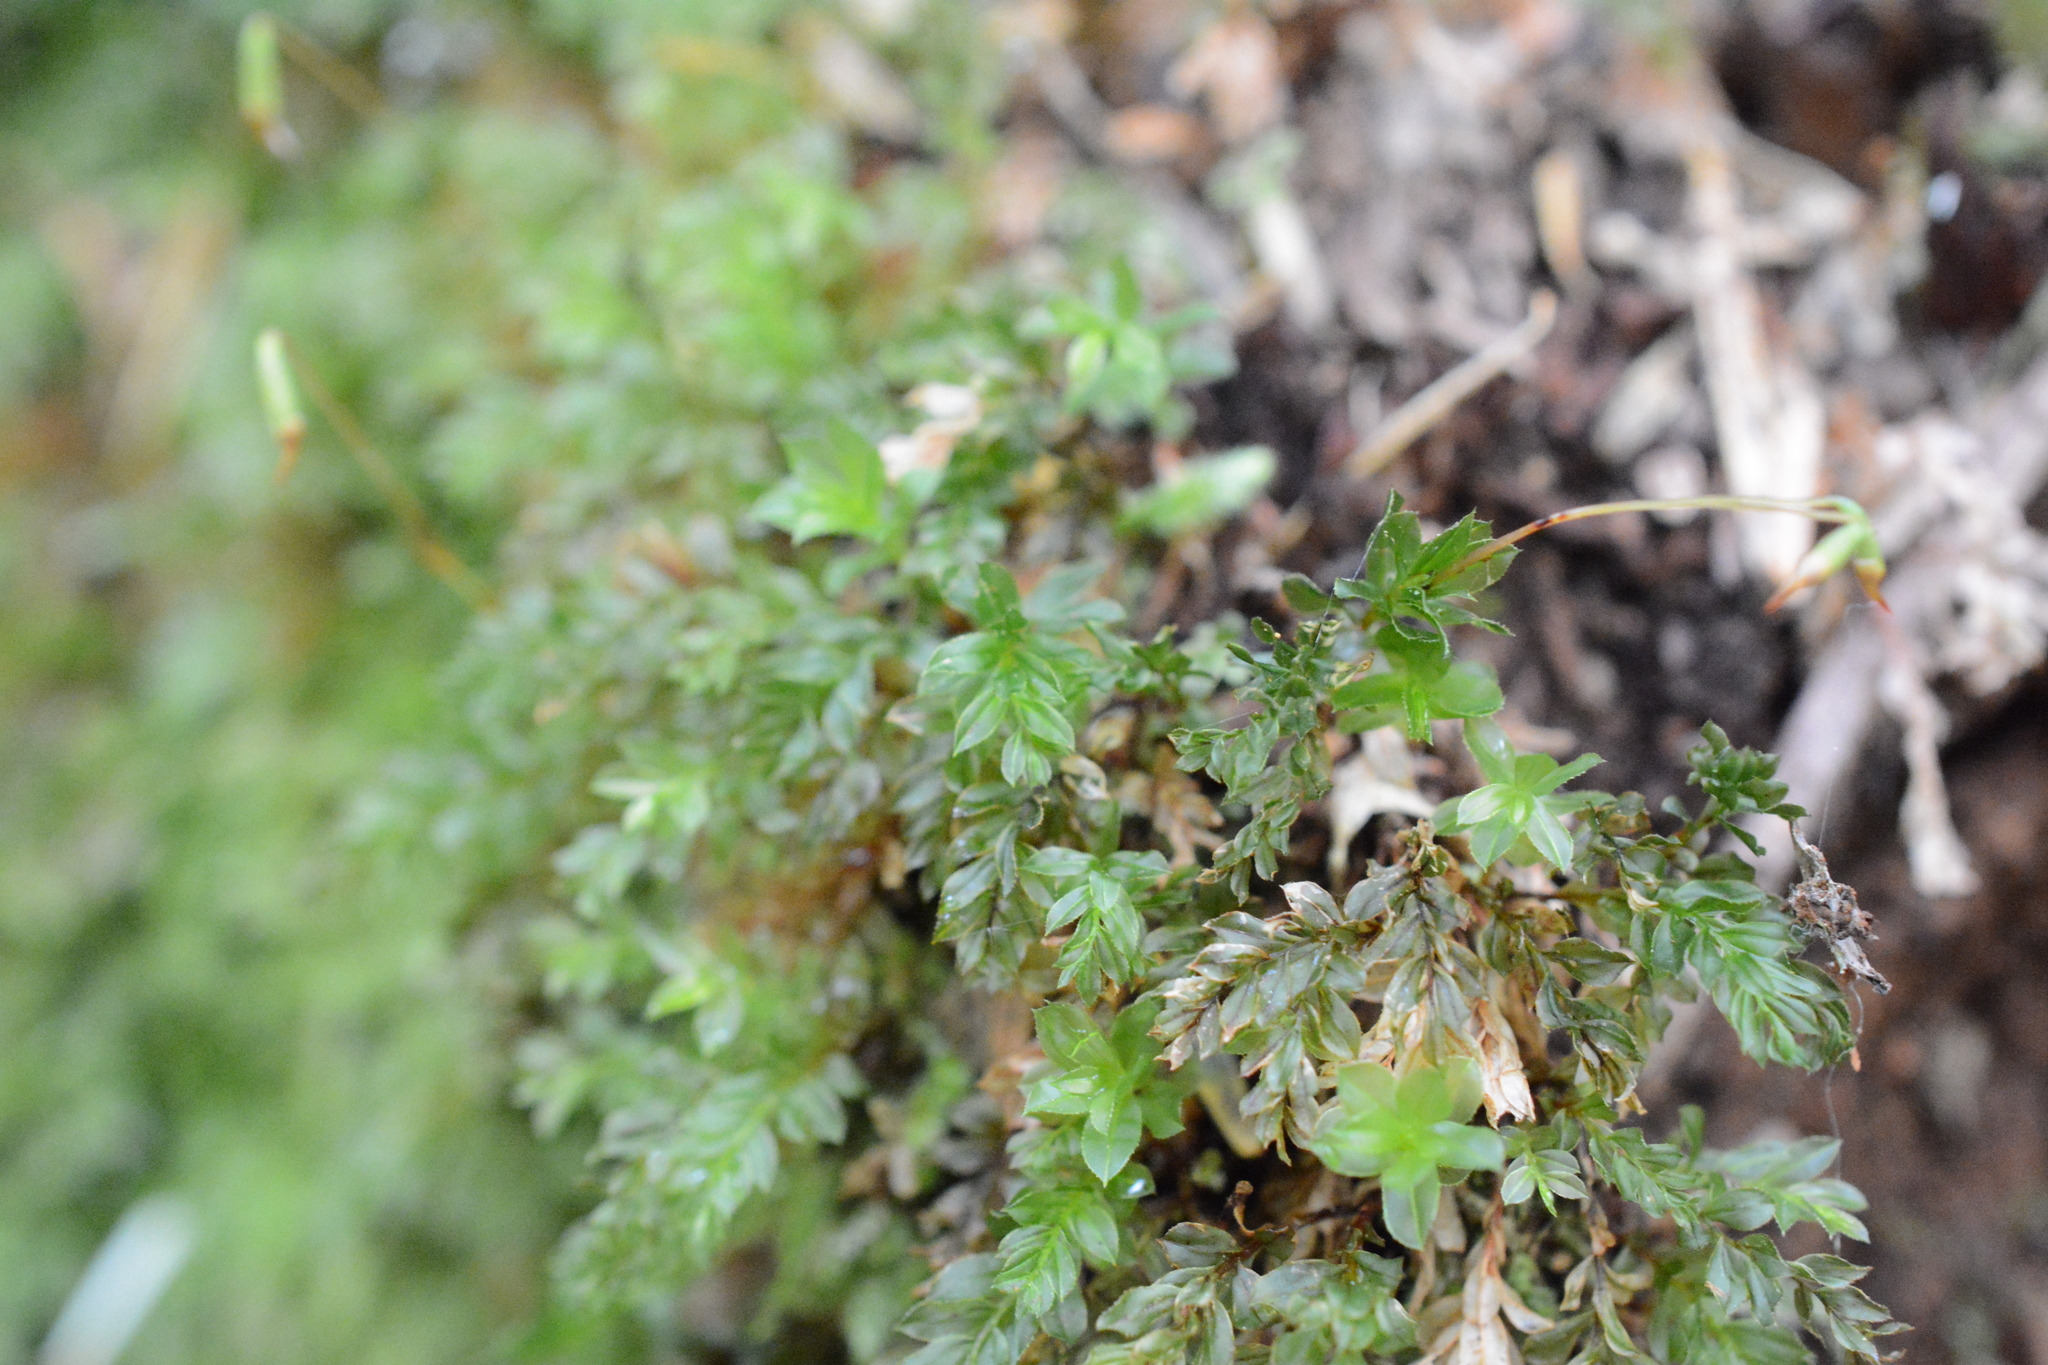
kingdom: Plantae
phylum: Bryophyta
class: Bryopsida
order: Bryales
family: Mniaceae
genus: Rhizomnium
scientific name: Rhizomnium glabrescens
